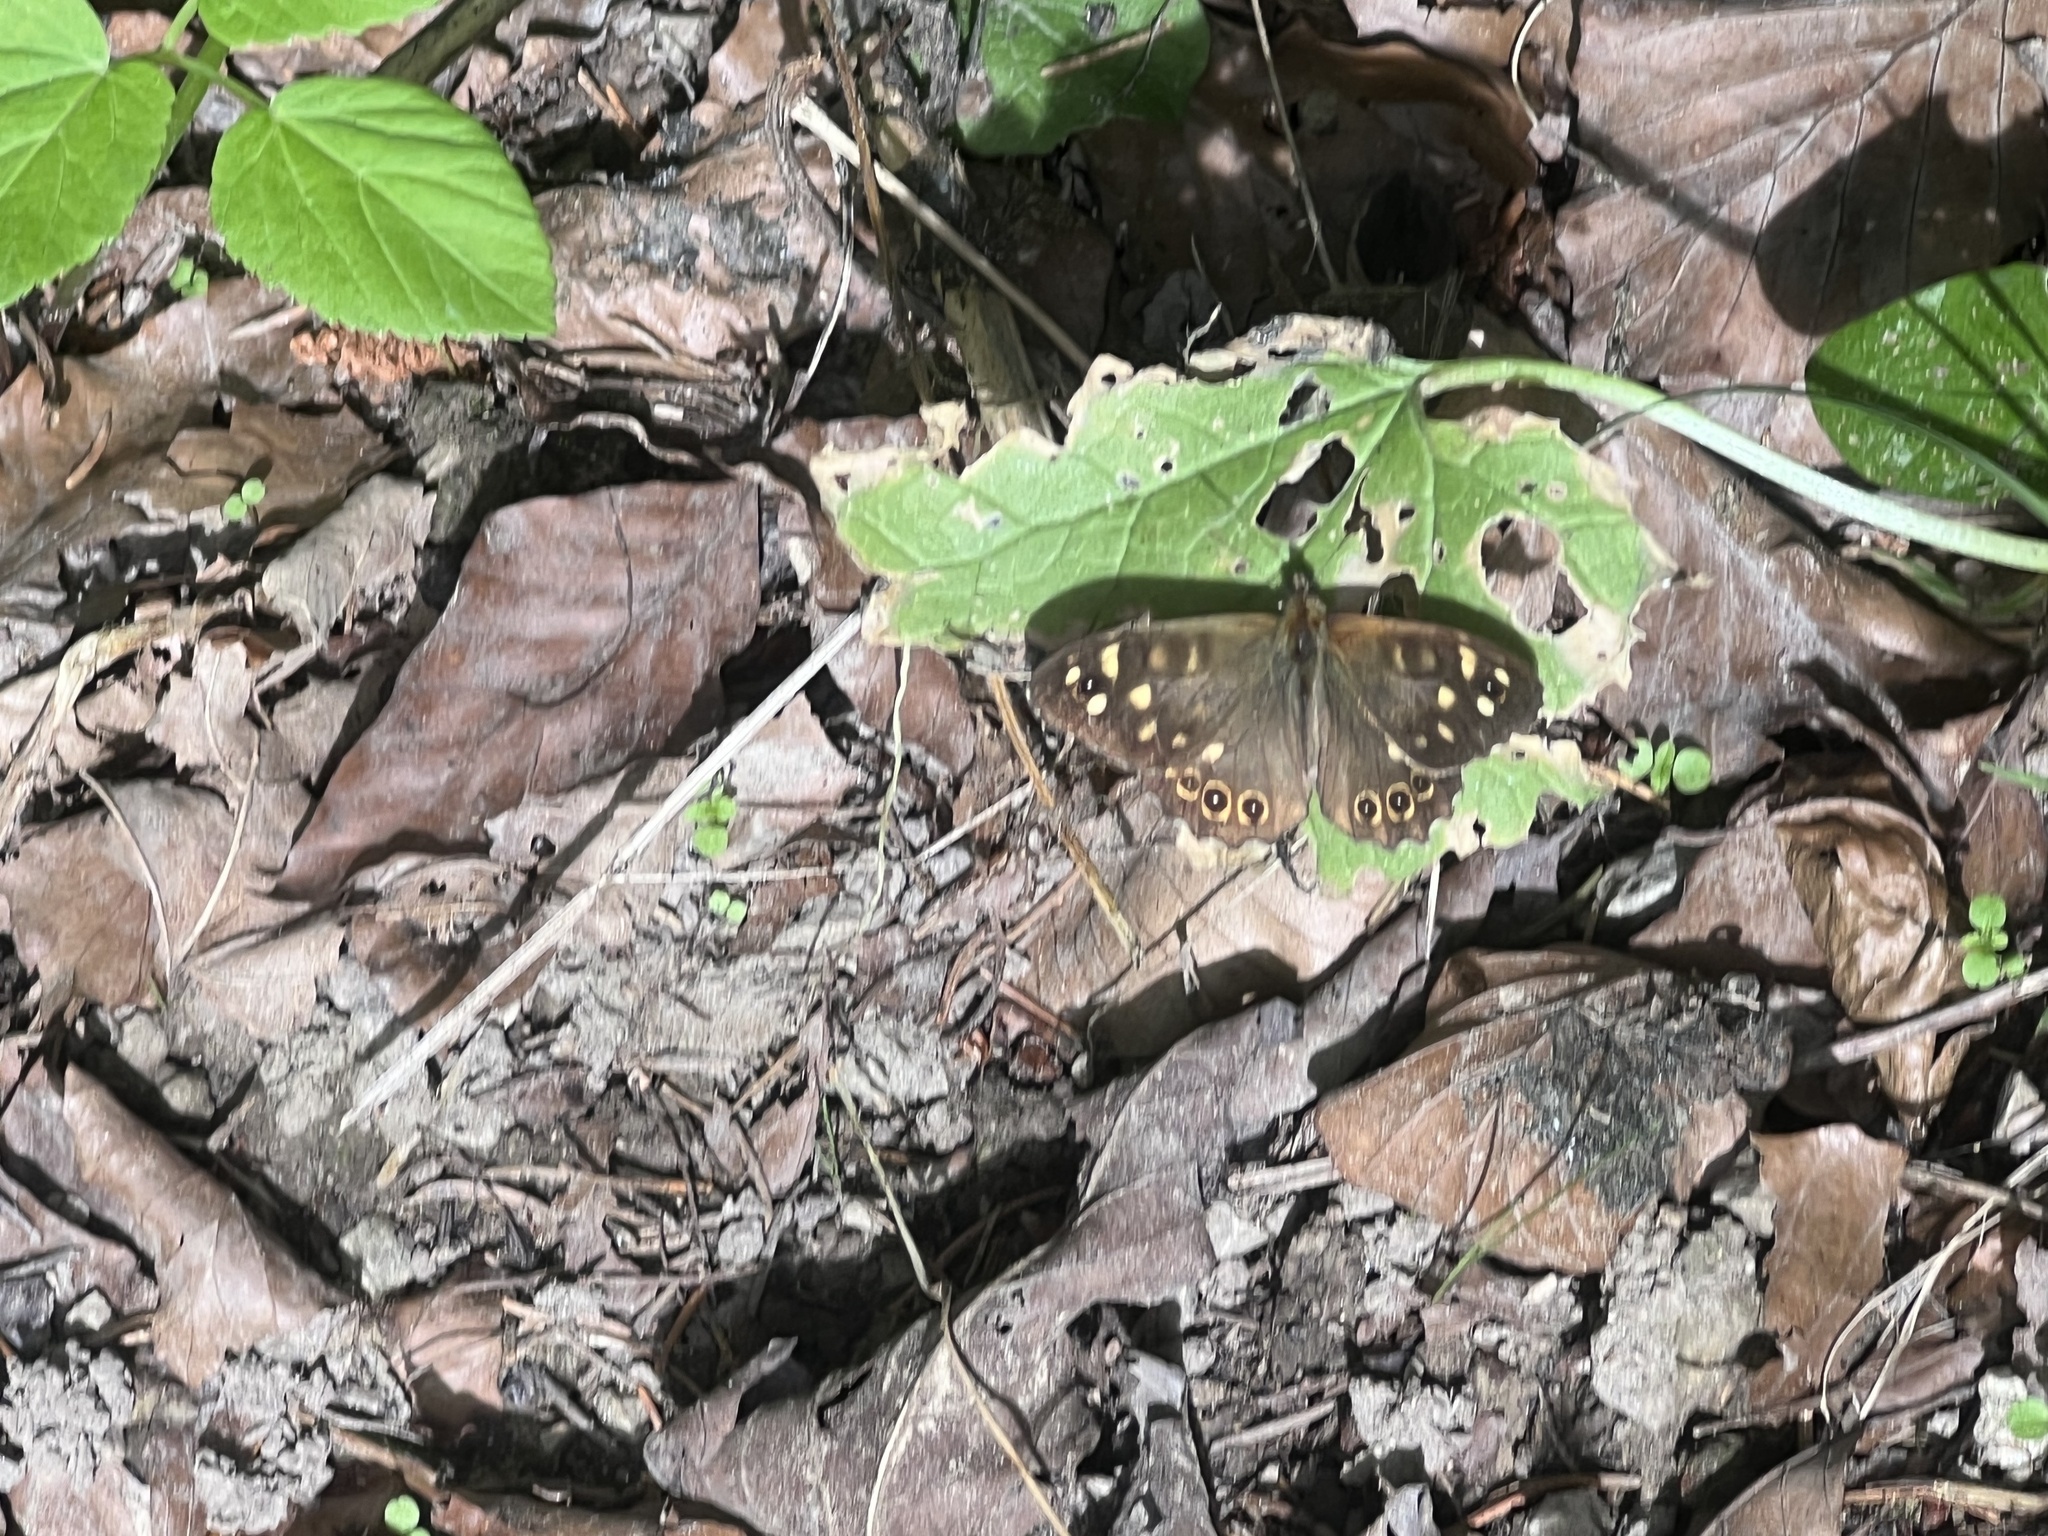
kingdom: Animalia
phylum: Arthropoda
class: Insecta
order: Lepidoptera
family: Nymphalidae
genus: Pararge
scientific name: Pararge aegeria
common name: Speckled wood
